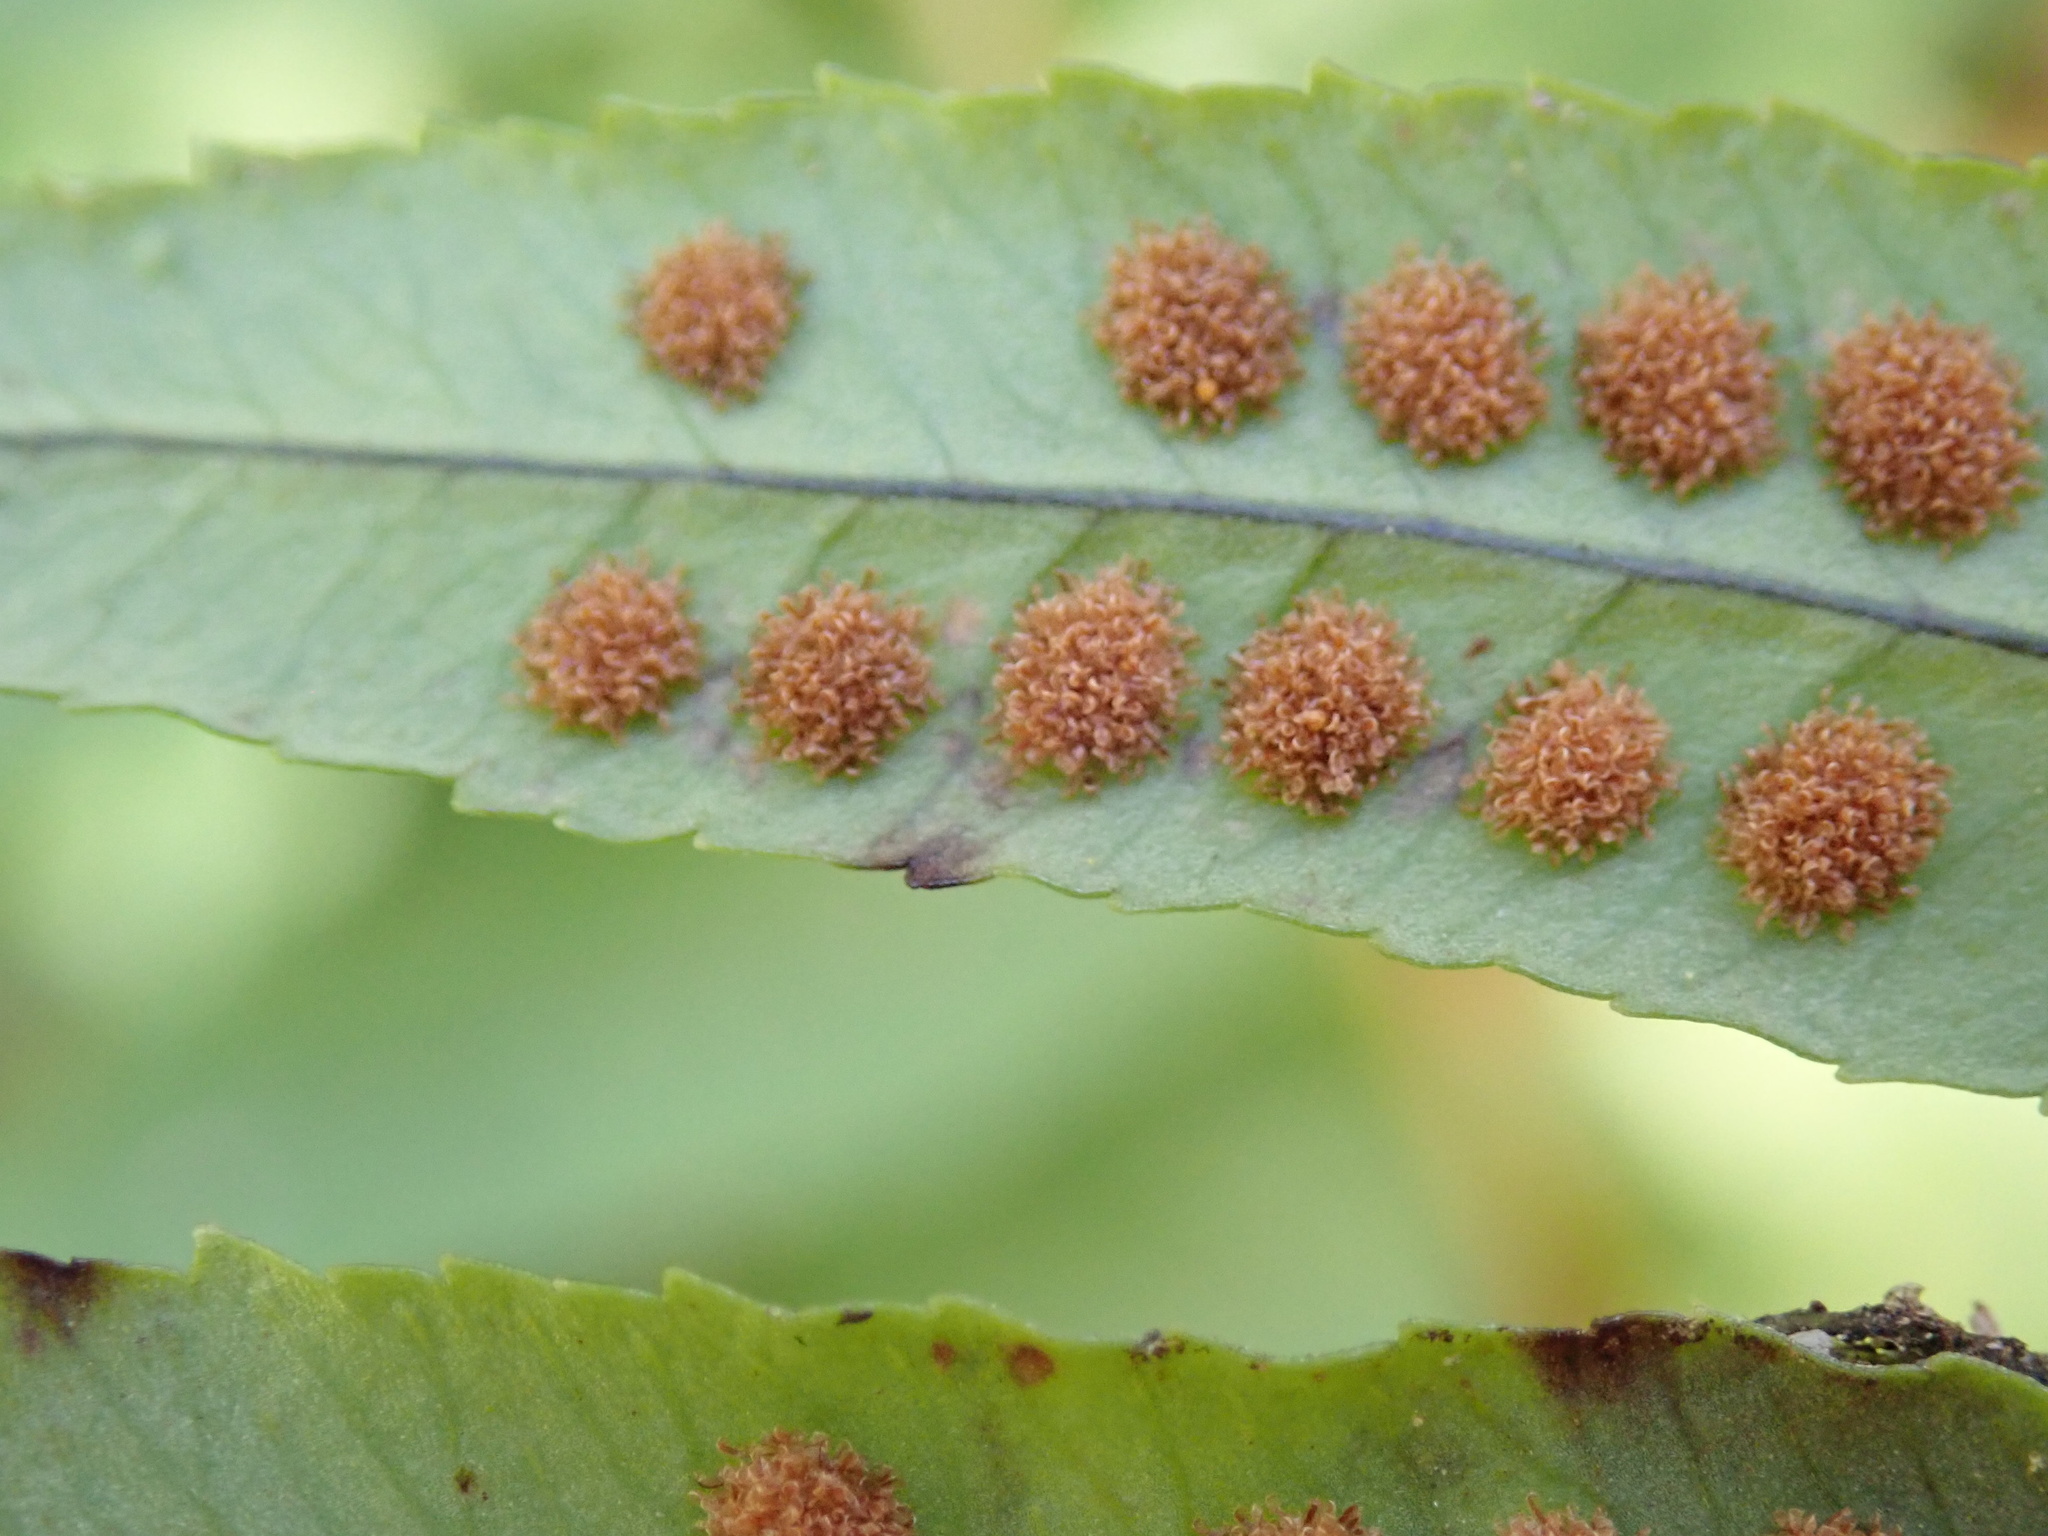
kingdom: Plantae
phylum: Tracheophyta
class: Polypodiopsida
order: Polypodiales
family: Polypodiaceae
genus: Polypodium
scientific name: Polypodium glycyrrhiza
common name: Licorice fern
